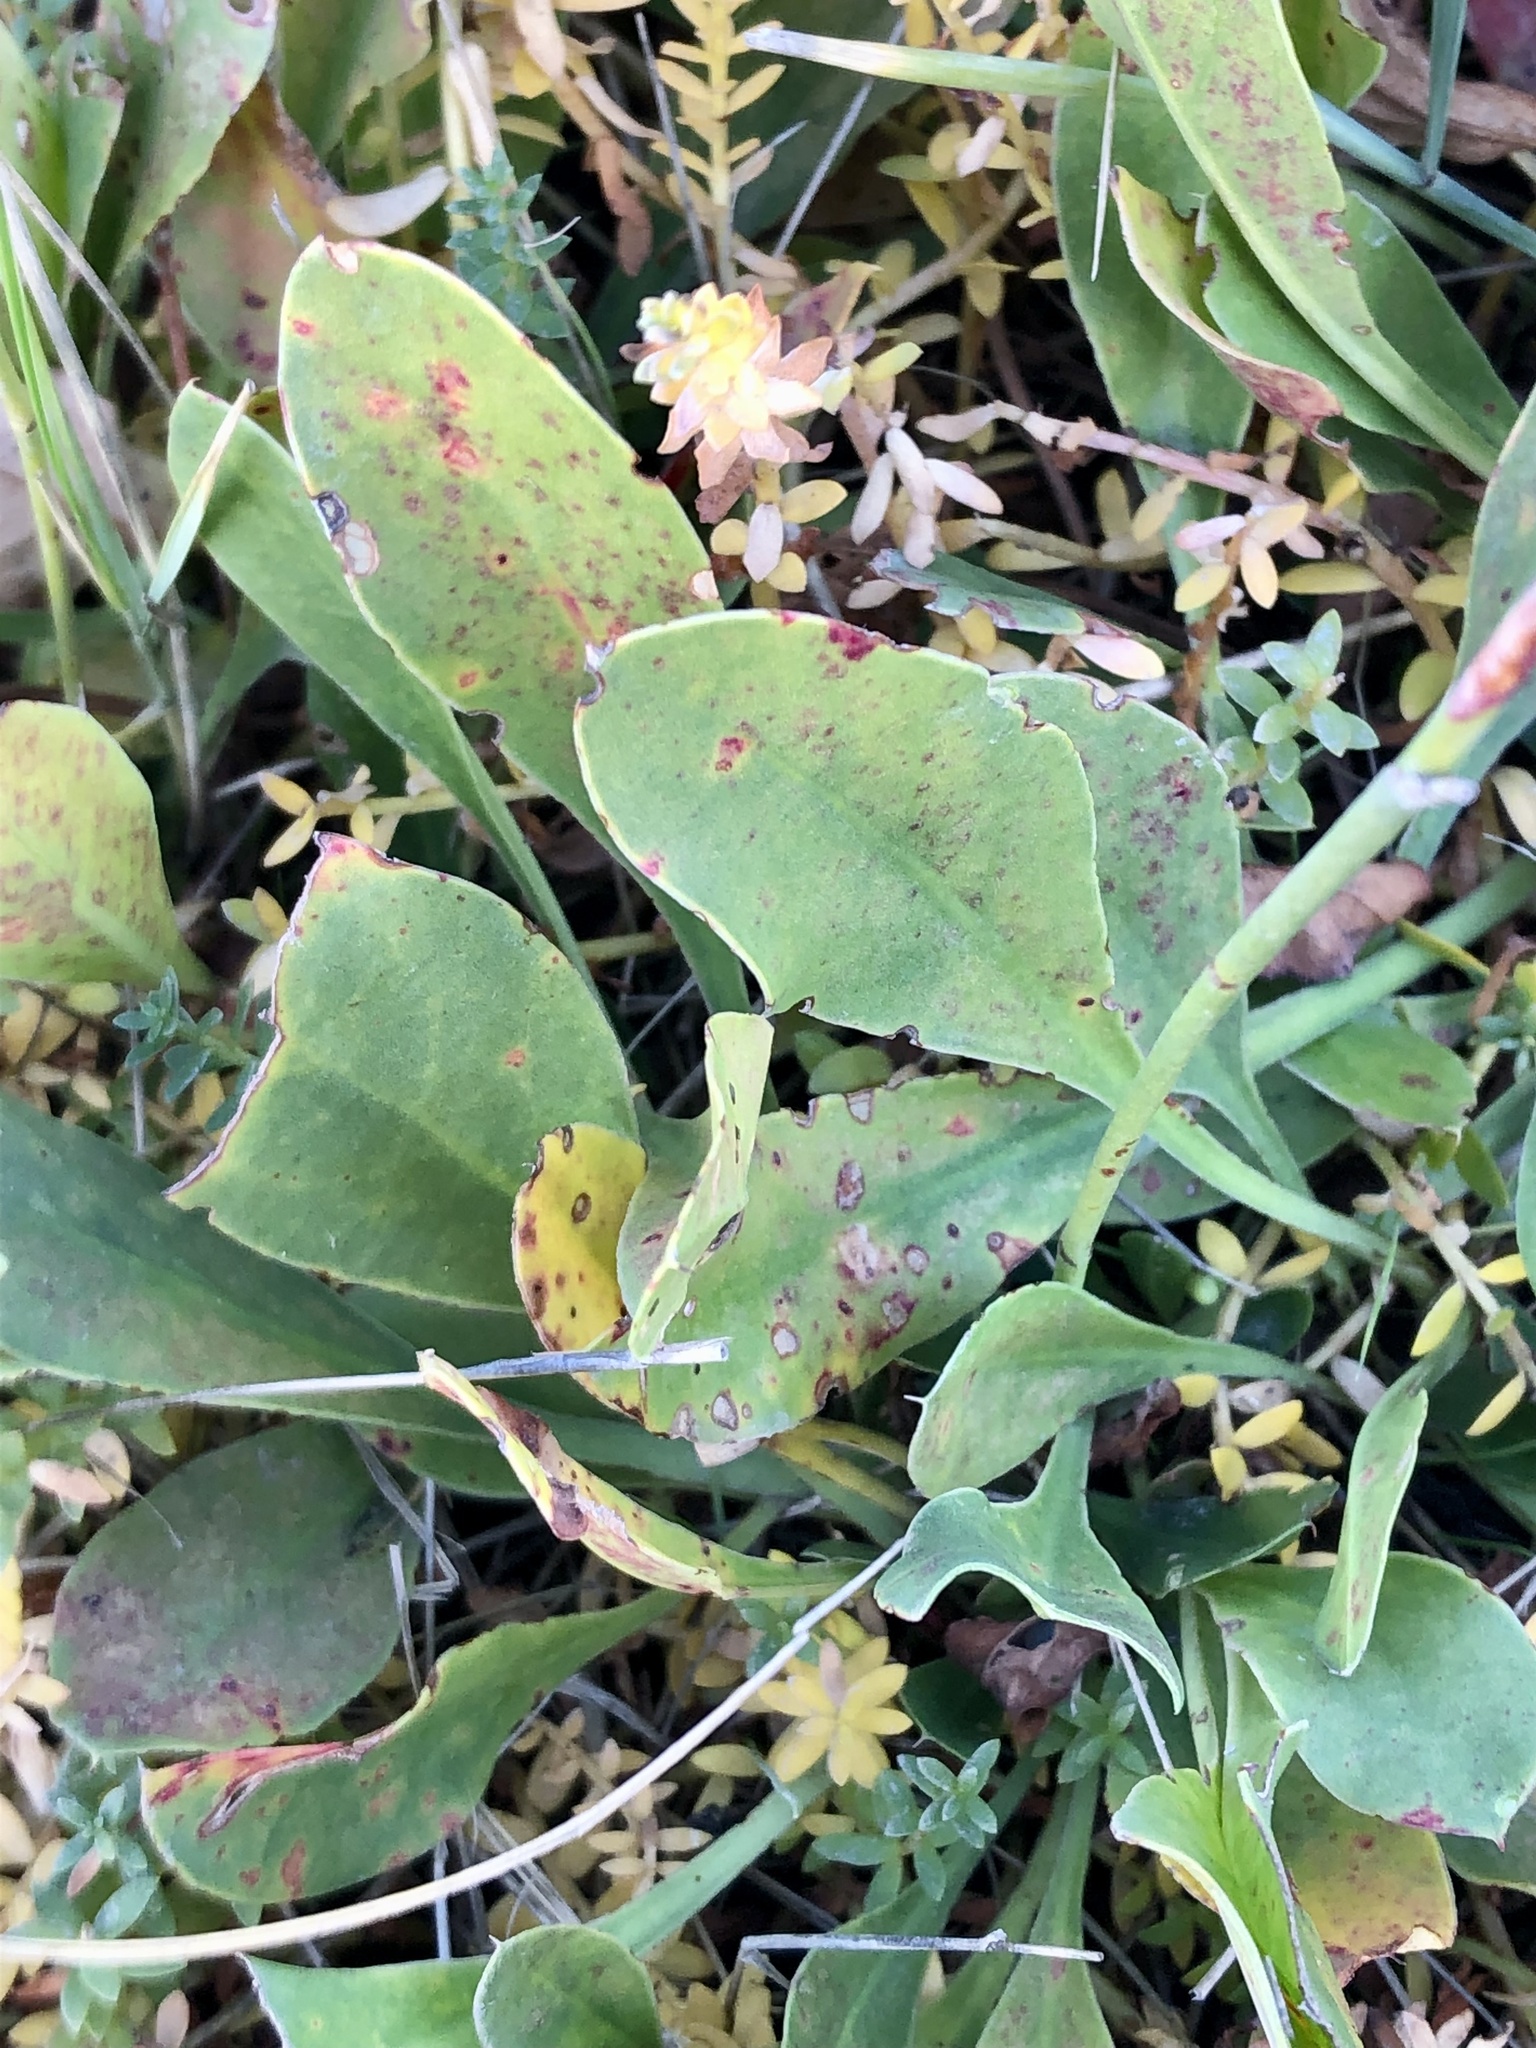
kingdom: Plantae
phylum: Tracheophyta
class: Magnoliopsida
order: Caryophyllales
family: Plumbaginaceae
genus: Limonium
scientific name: Limonium vulgare
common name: Common sea-lavender
